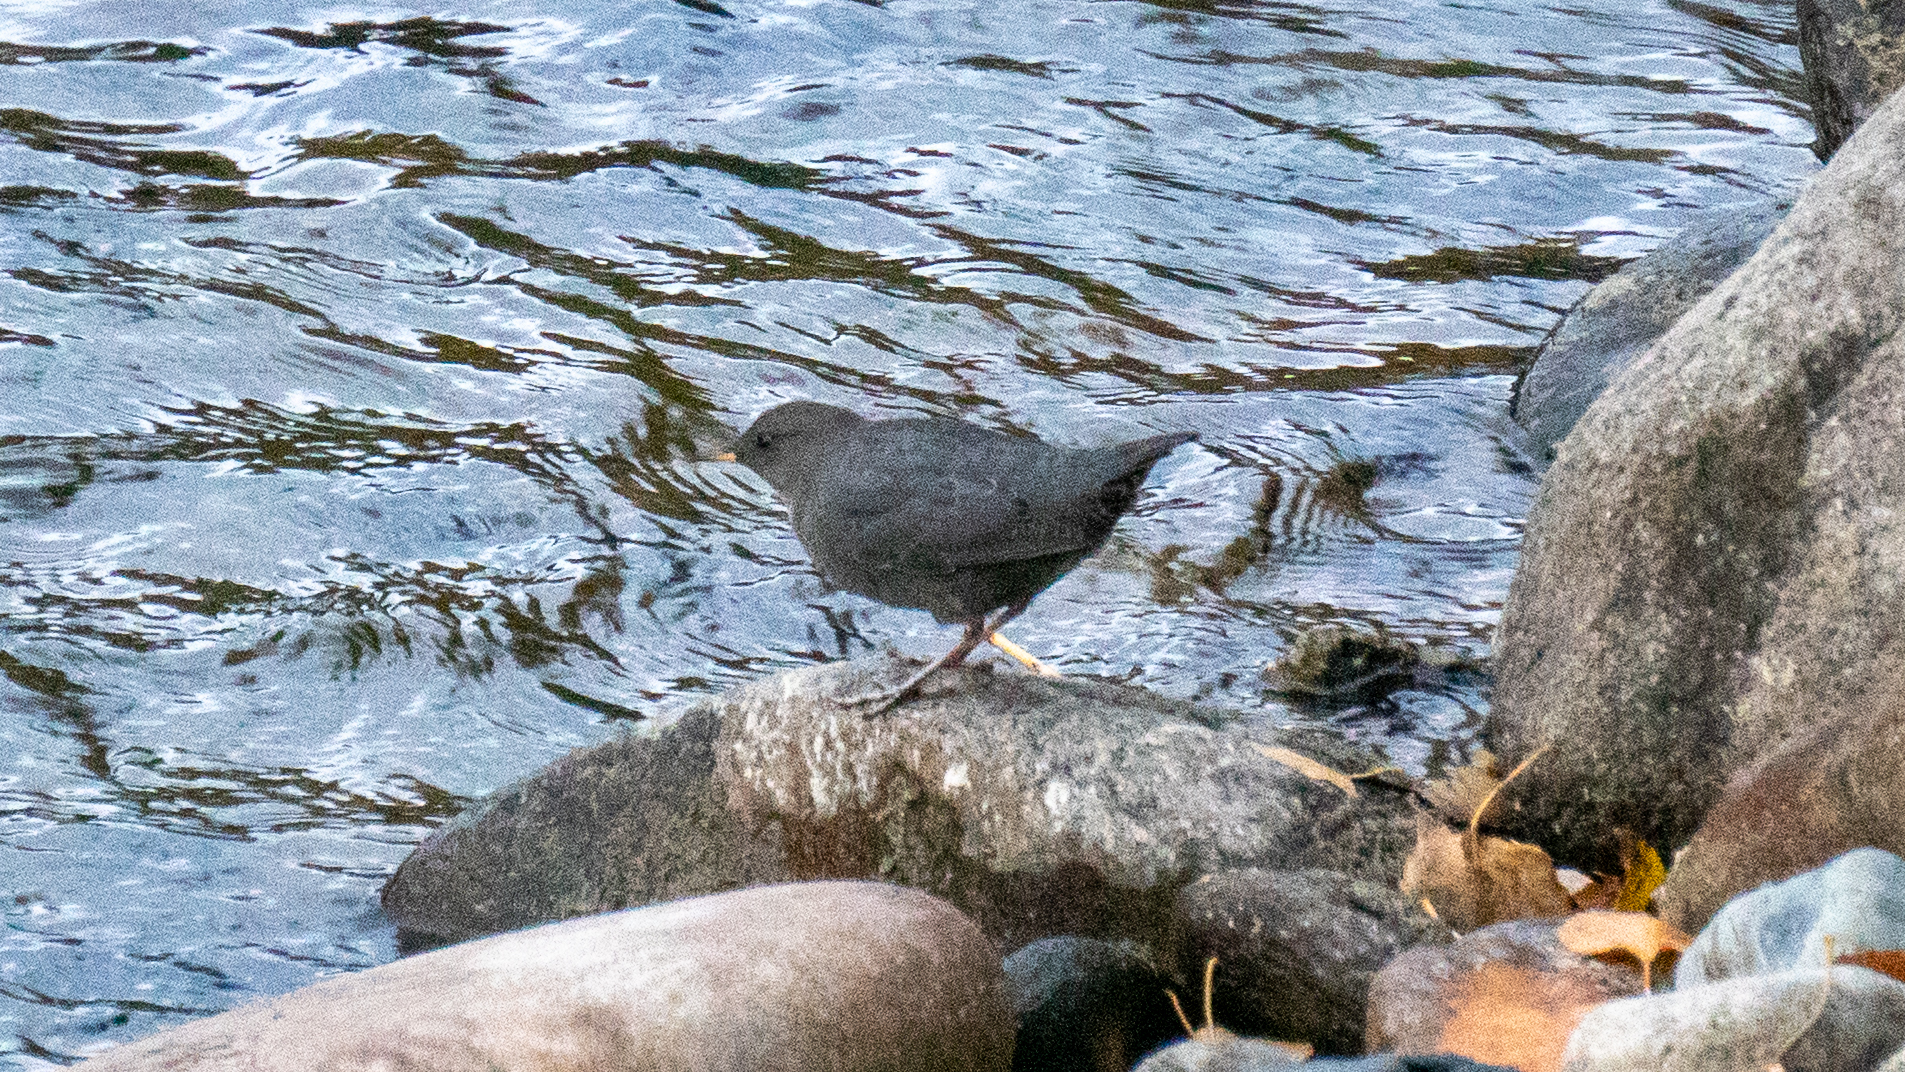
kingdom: Animalia
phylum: Chordata
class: Aves
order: Passeriformes
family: Cinclidae
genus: Cinclus
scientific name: Cinclus mexicanus
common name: American dipper
